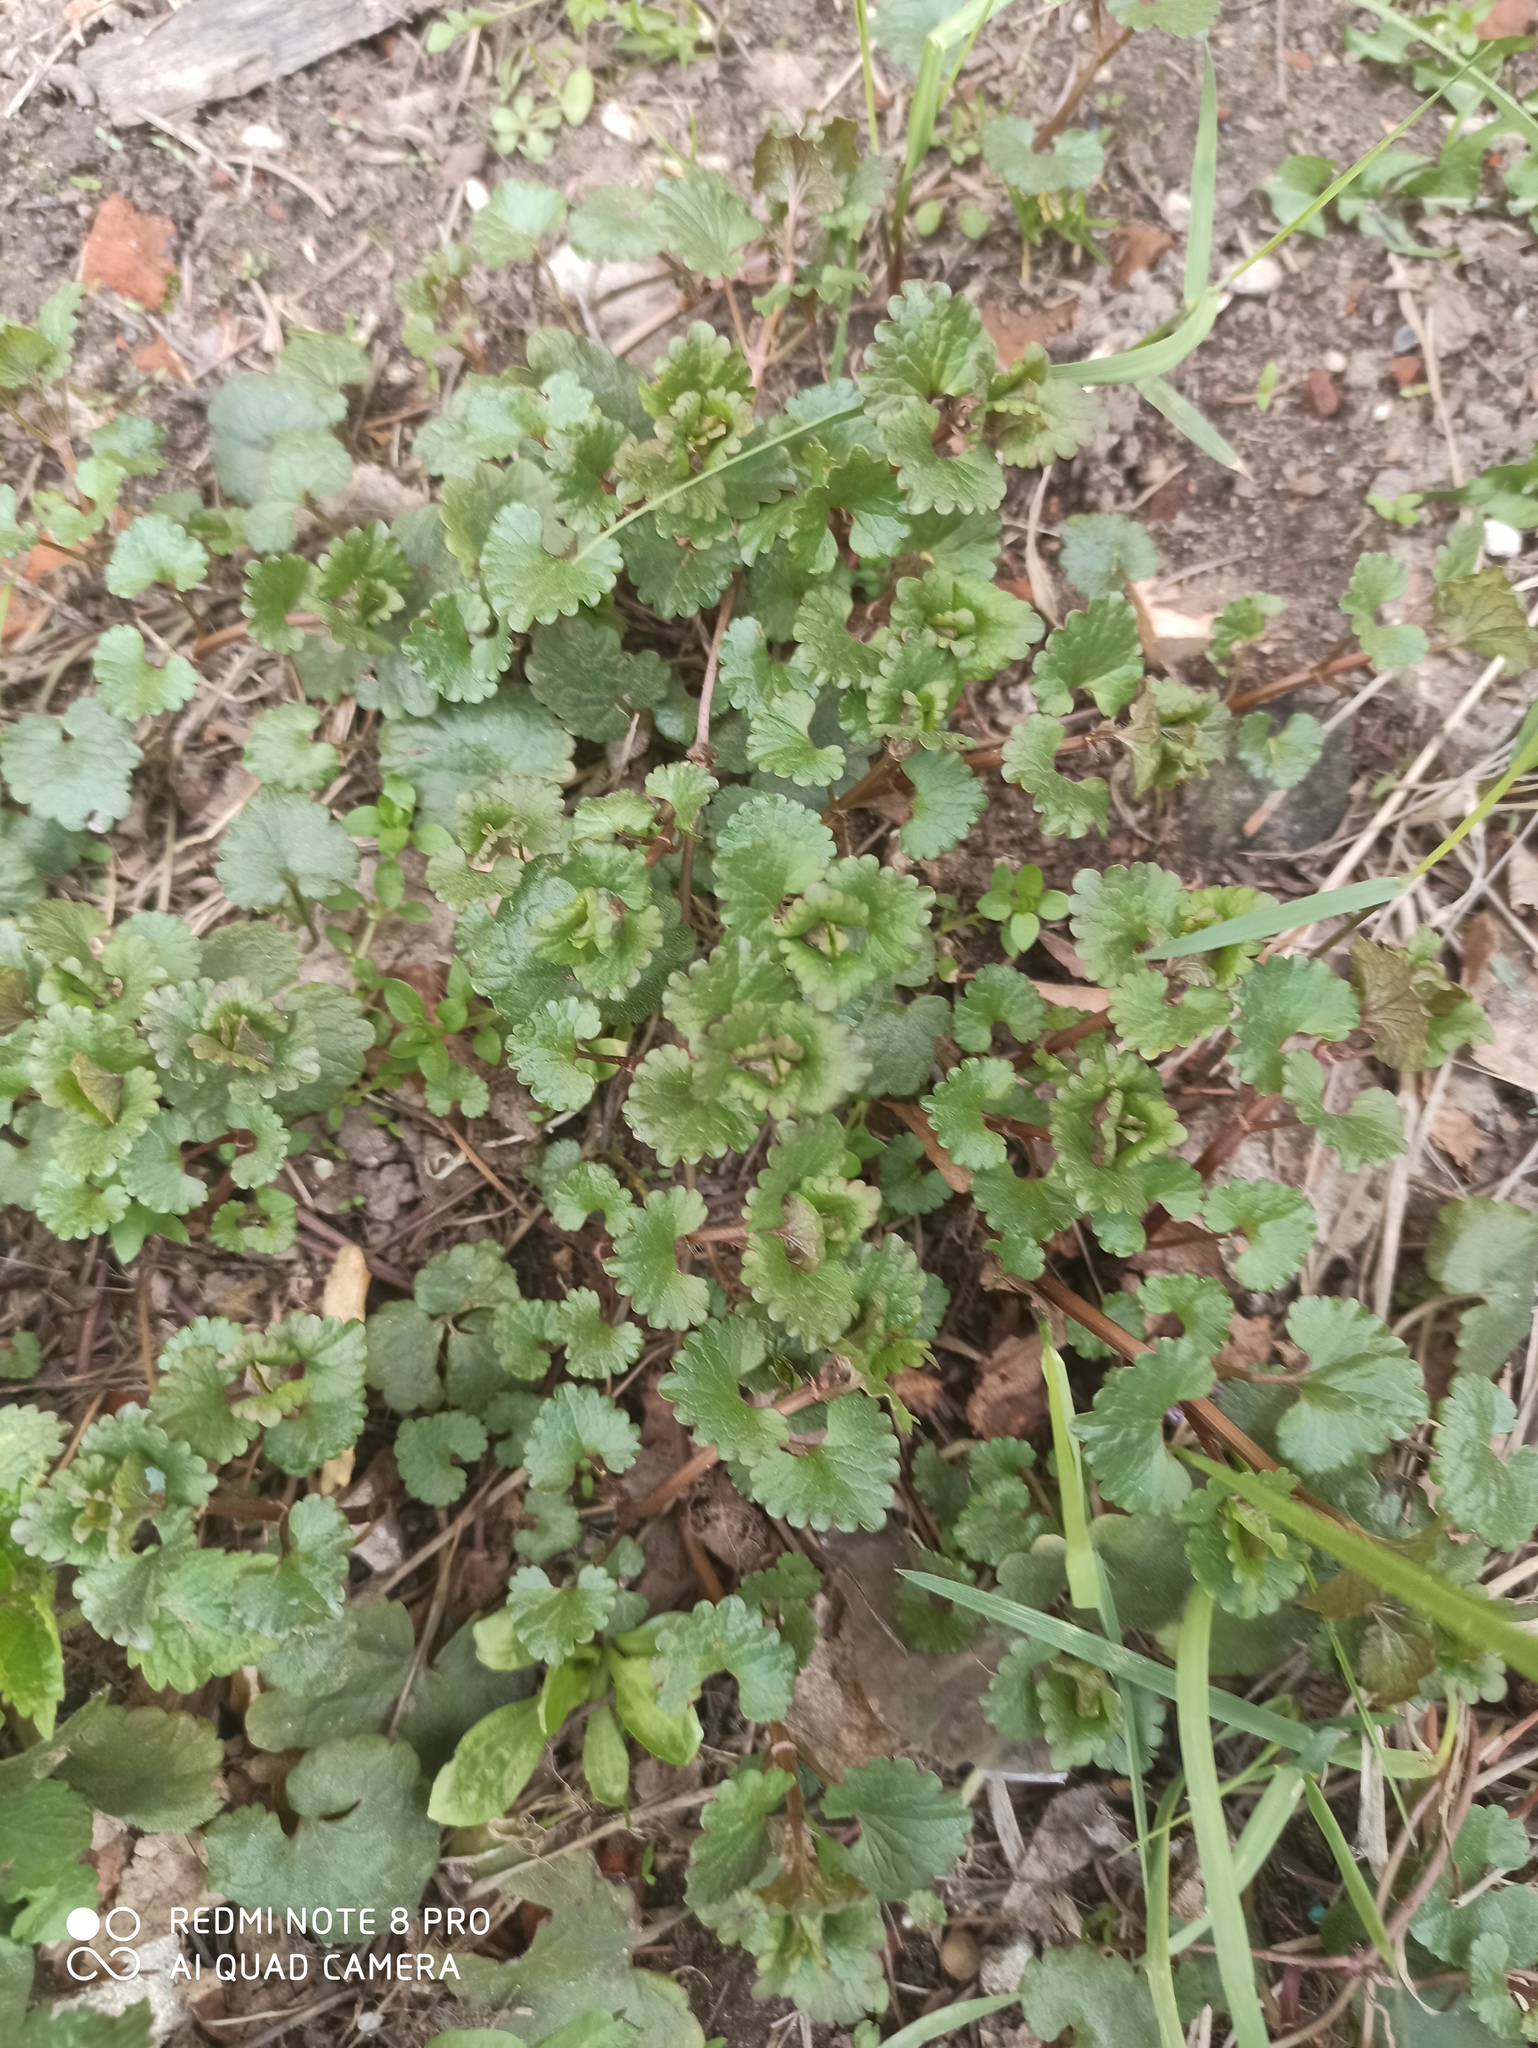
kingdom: Plantae
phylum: Tracheophyta
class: Magnoliopsida
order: Lamiales
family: Lamiaceae
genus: Glechoma
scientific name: Glechoma hederacea
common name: Ground ivy
